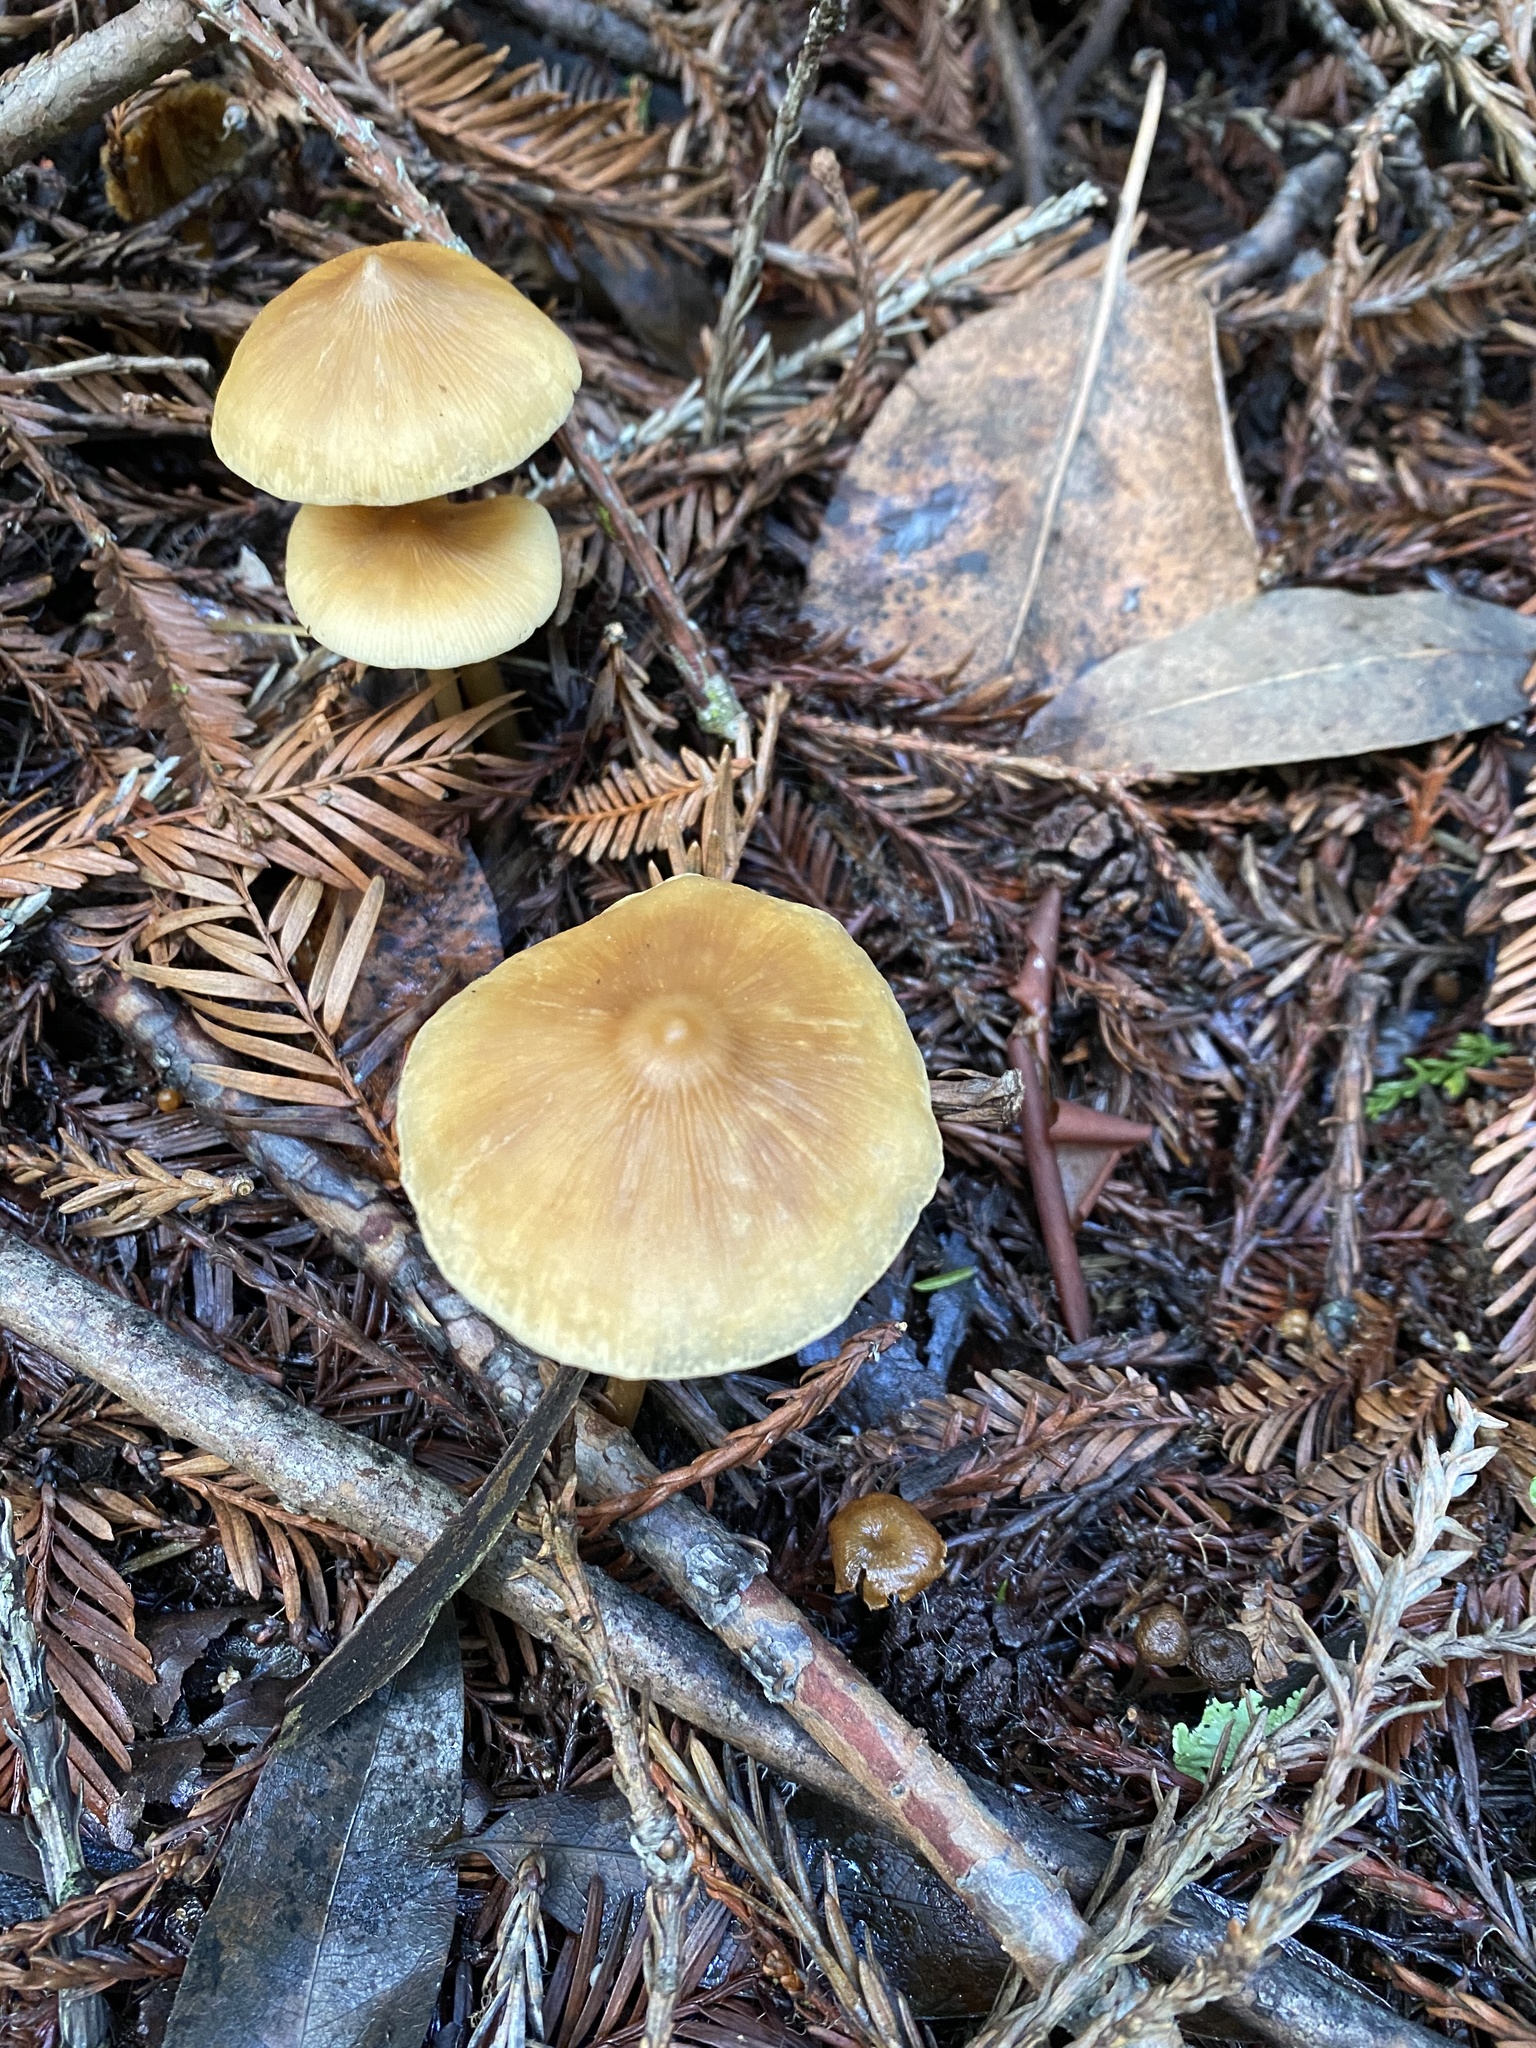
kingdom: Fungi
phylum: Basidiomycota
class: Agaricomycetes
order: Agaricales
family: Tricholomataceae
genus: Caulorhiza
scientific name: Caulorhiza umbonata
